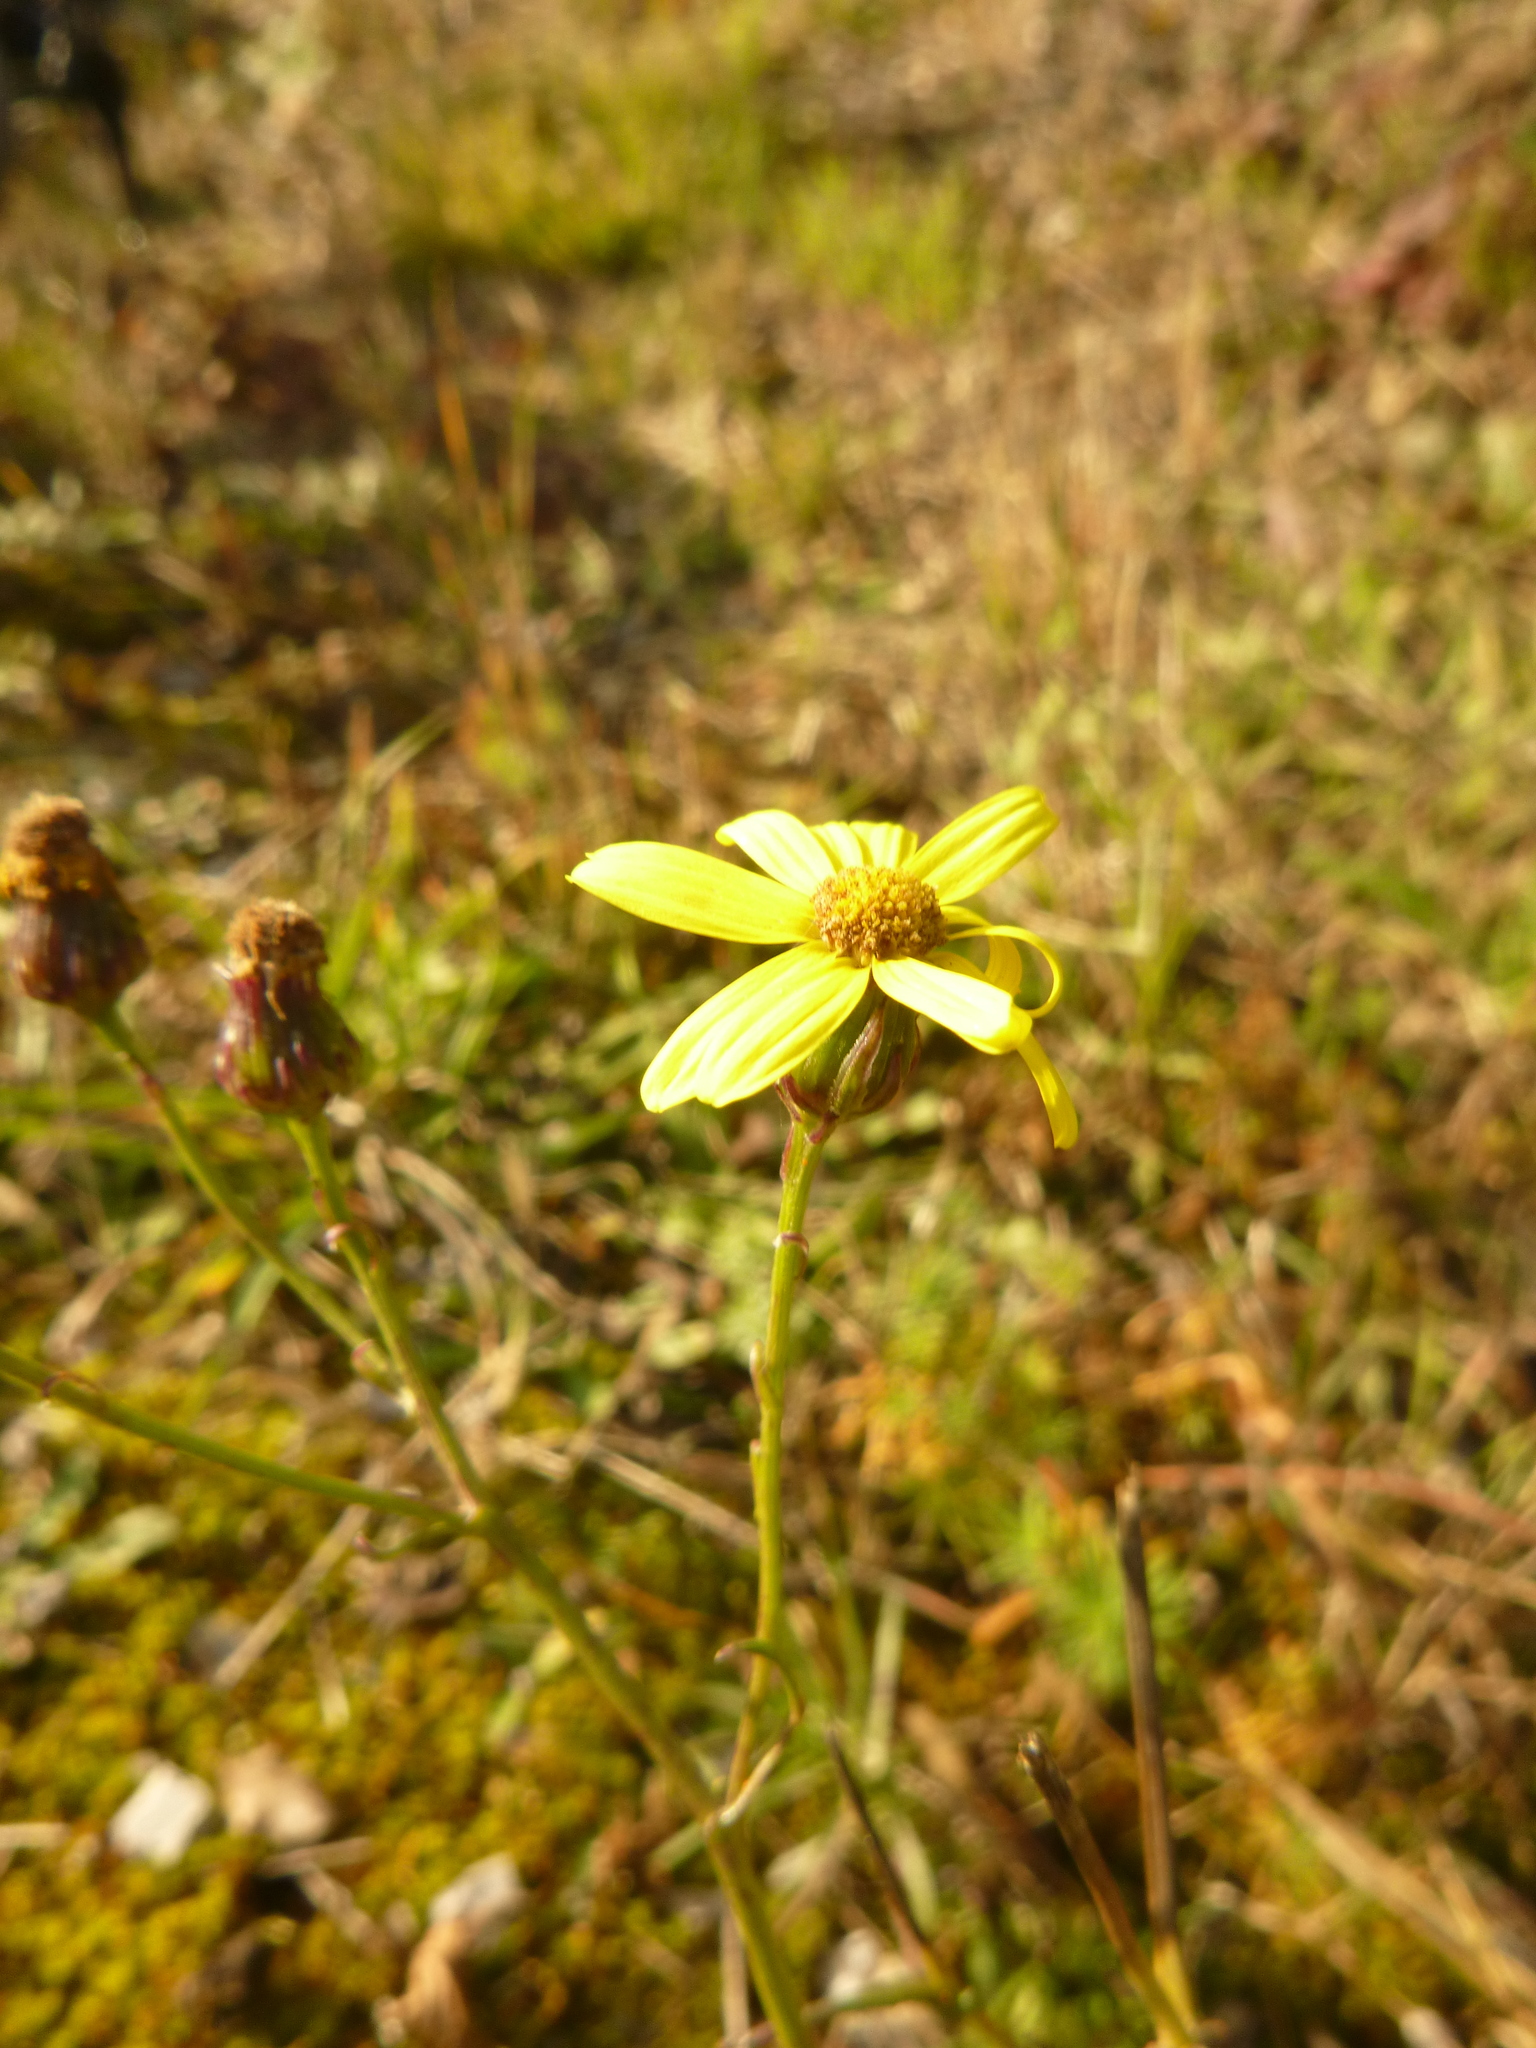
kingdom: Plantae
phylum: Tracheophyta
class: Magnoliopsida
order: Asterales
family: Asteraceae
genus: Senecio
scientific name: Senecio inaequidens
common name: Narrow-leaved ragwort
